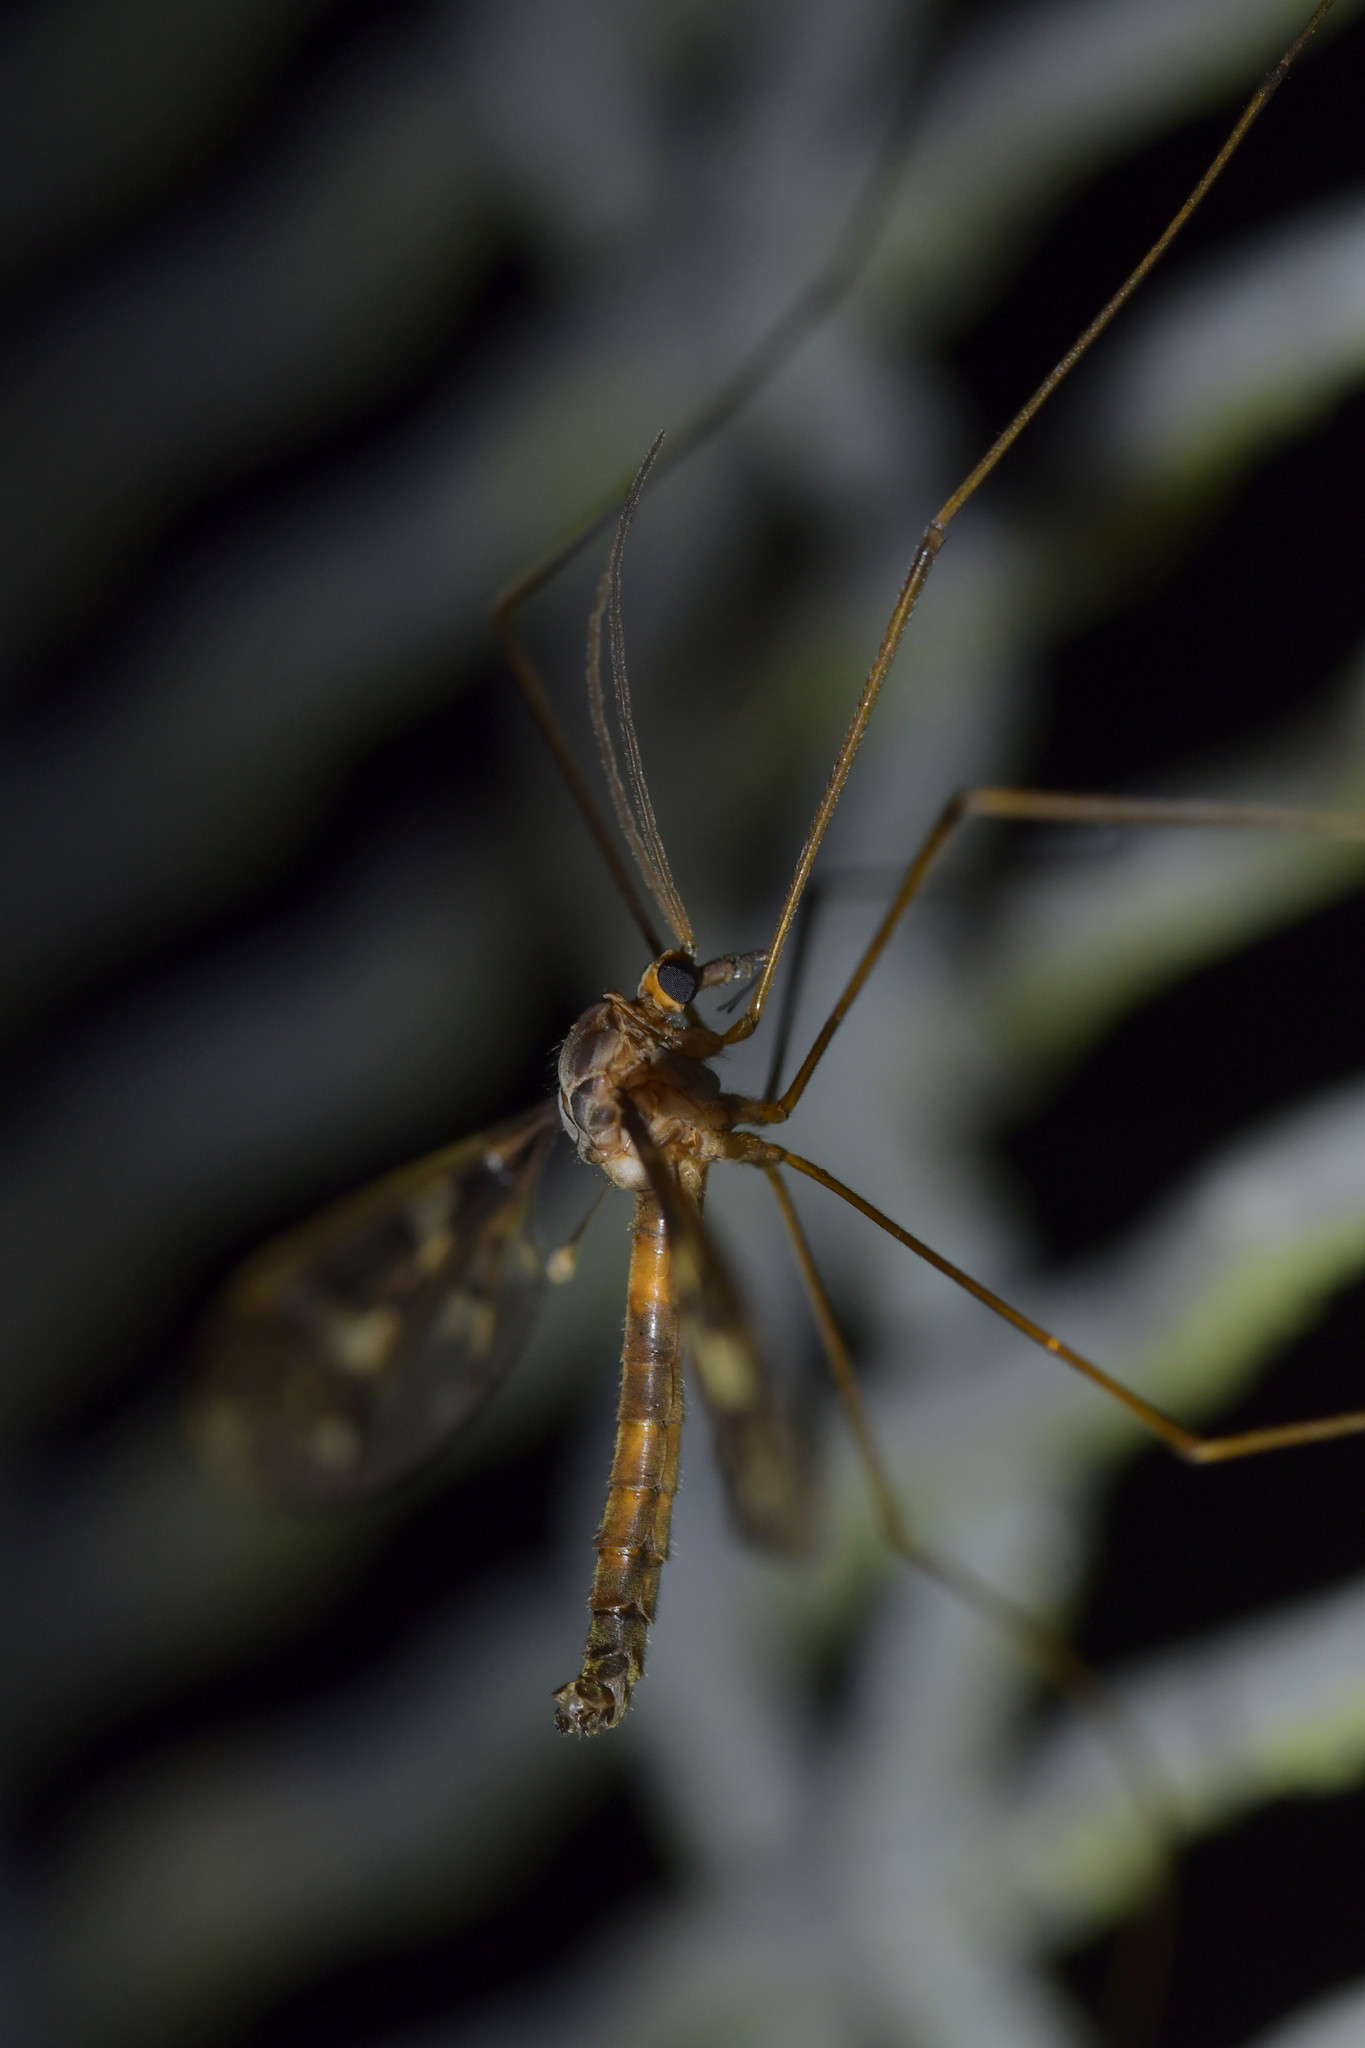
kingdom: Animalia
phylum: Arthropoda
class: Insecta
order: Diptera
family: Tipulidae
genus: Leptotarsus
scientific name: Leptotarsus binotatus
